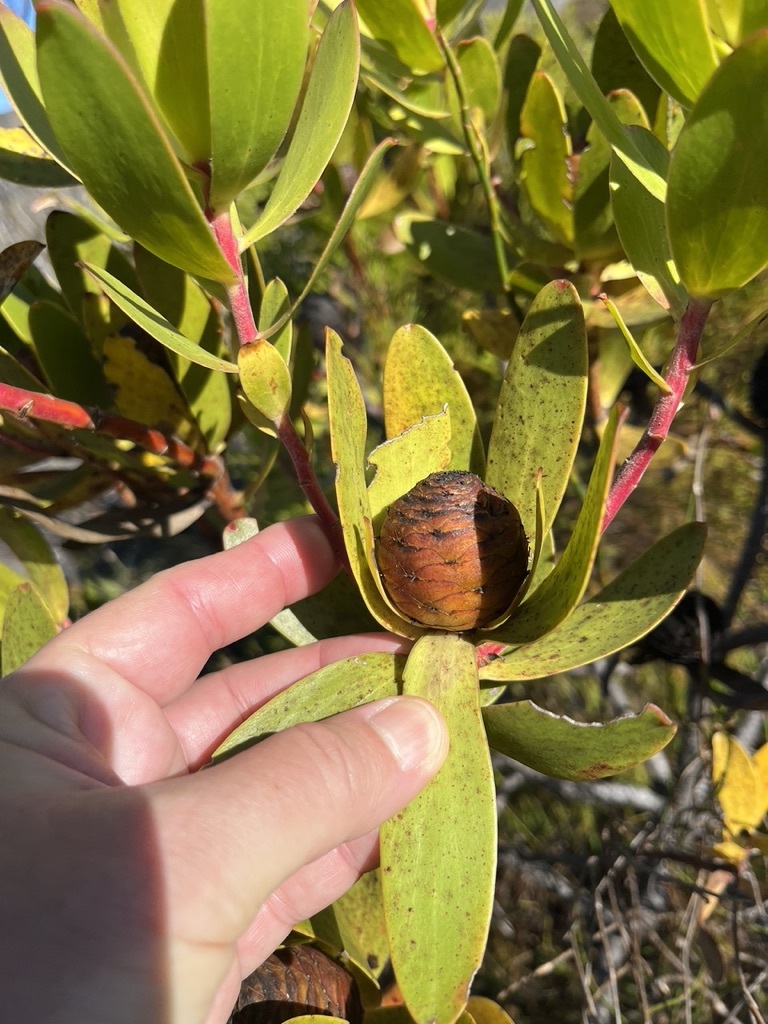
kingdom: Plantae
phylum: Tracheophyta
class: Magnoliopsida
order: Proteales
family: Proteaceae
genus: Leucadendron
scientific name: Leucadendron gandogeri
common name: Broad-leaf conebush
